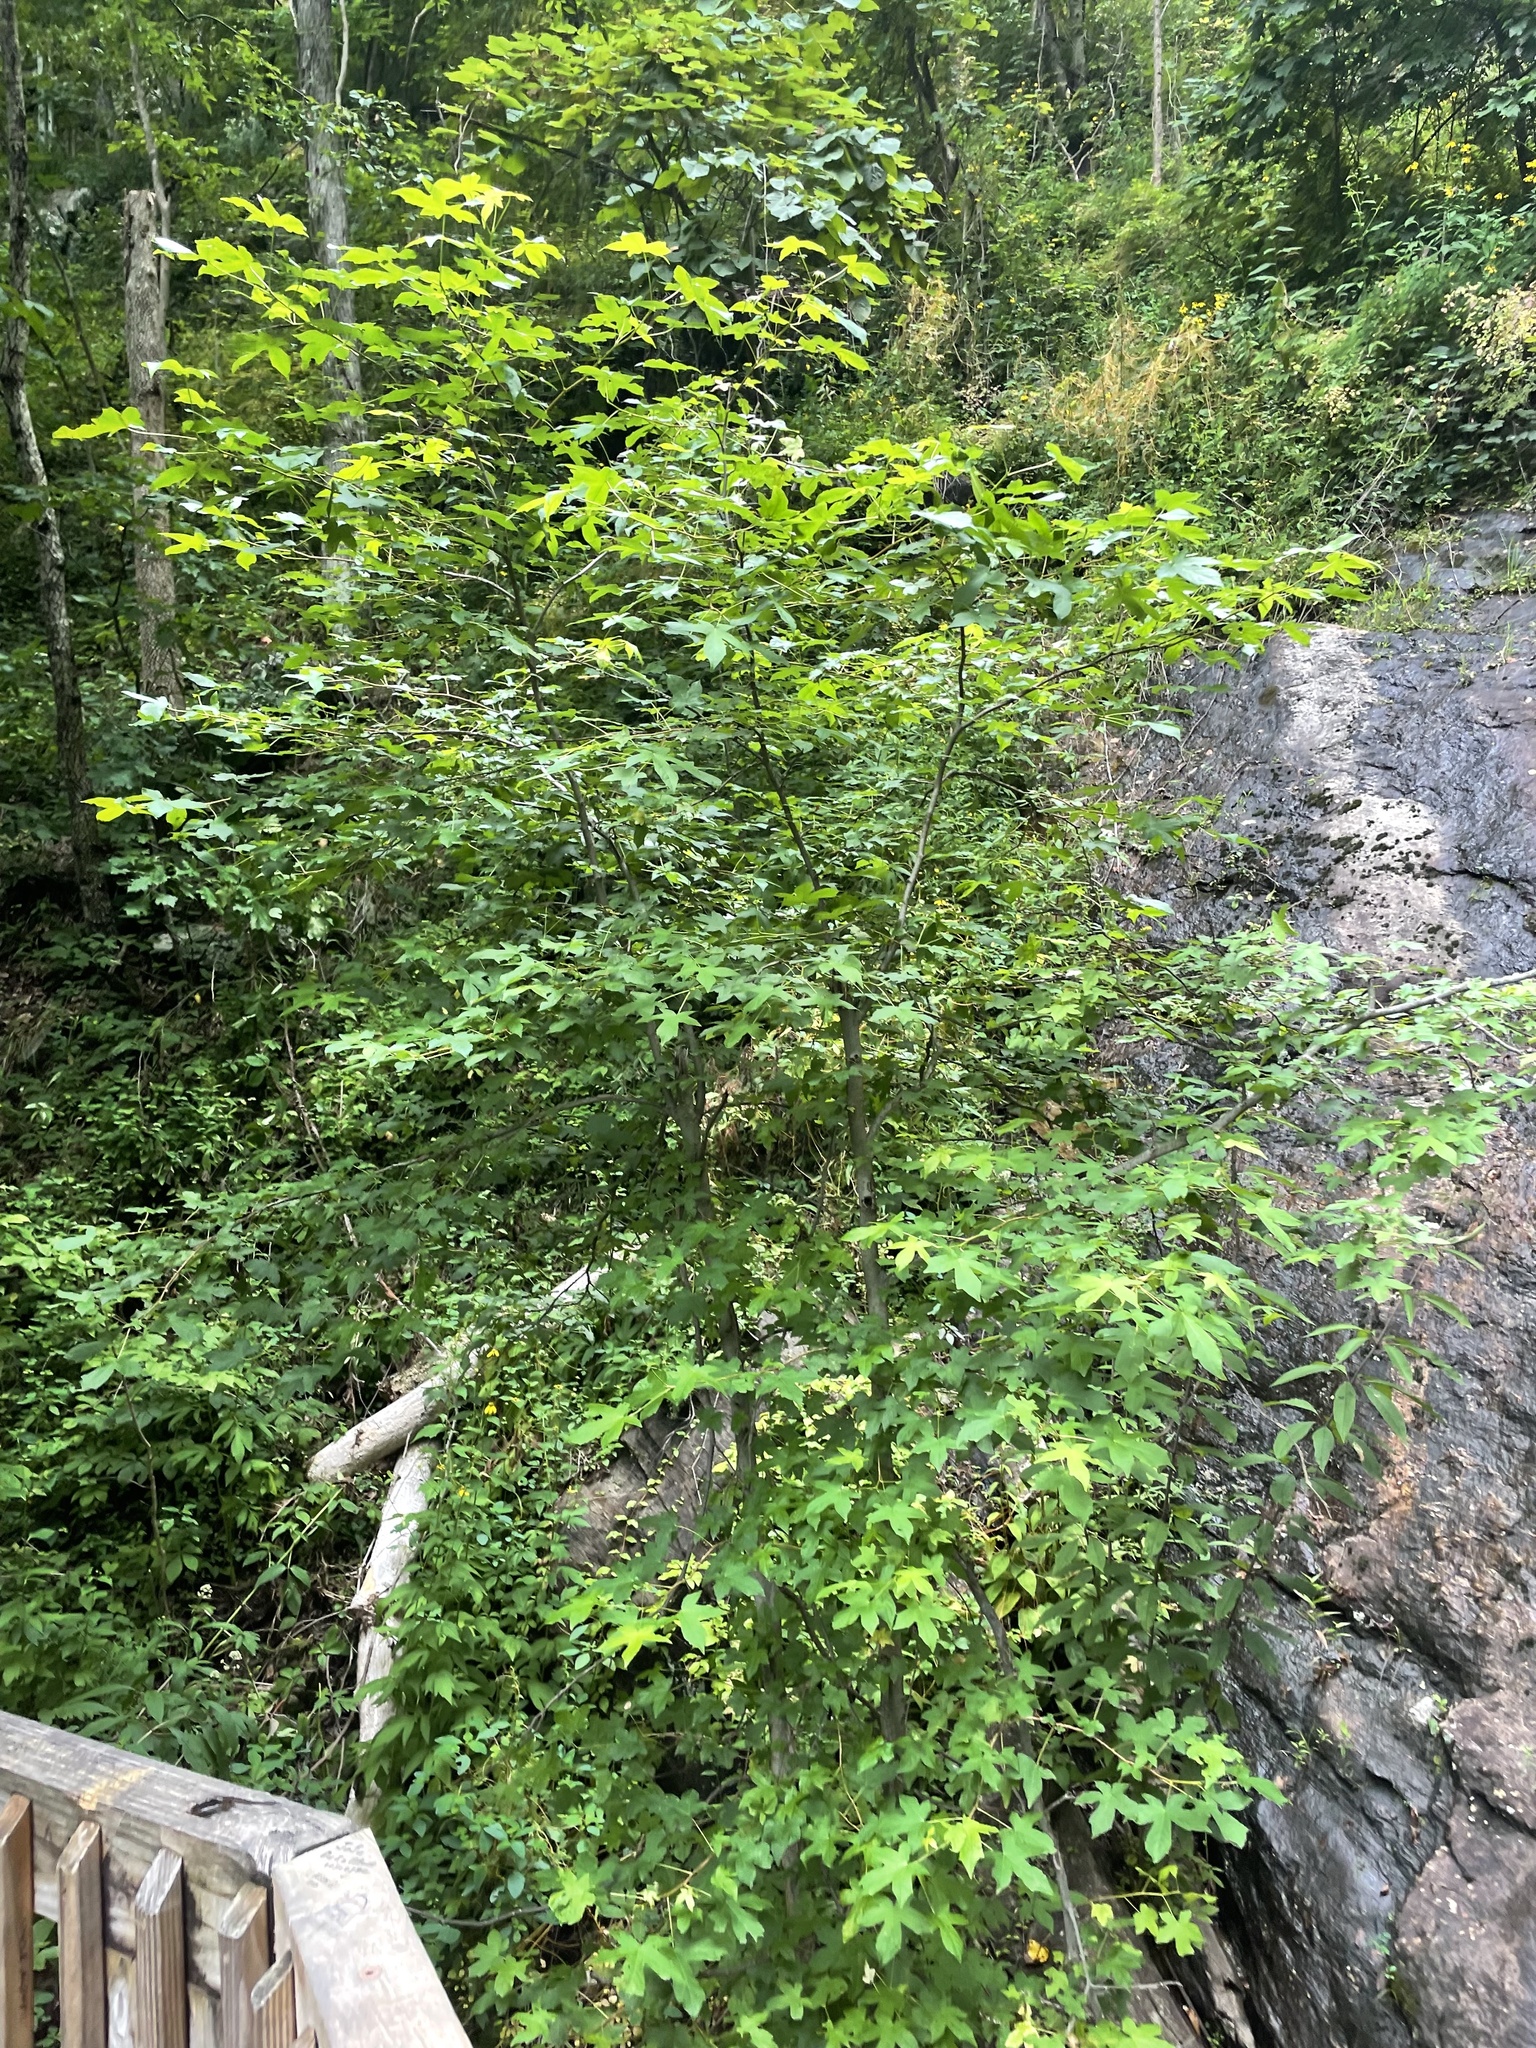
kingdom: Plantae
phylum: Tracheophyta
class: Magnoliopsida
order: Saxifragales
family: Altingiaceae
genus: Liquidambar
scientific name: Liquidambar styraciflua
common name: Sweet gum
